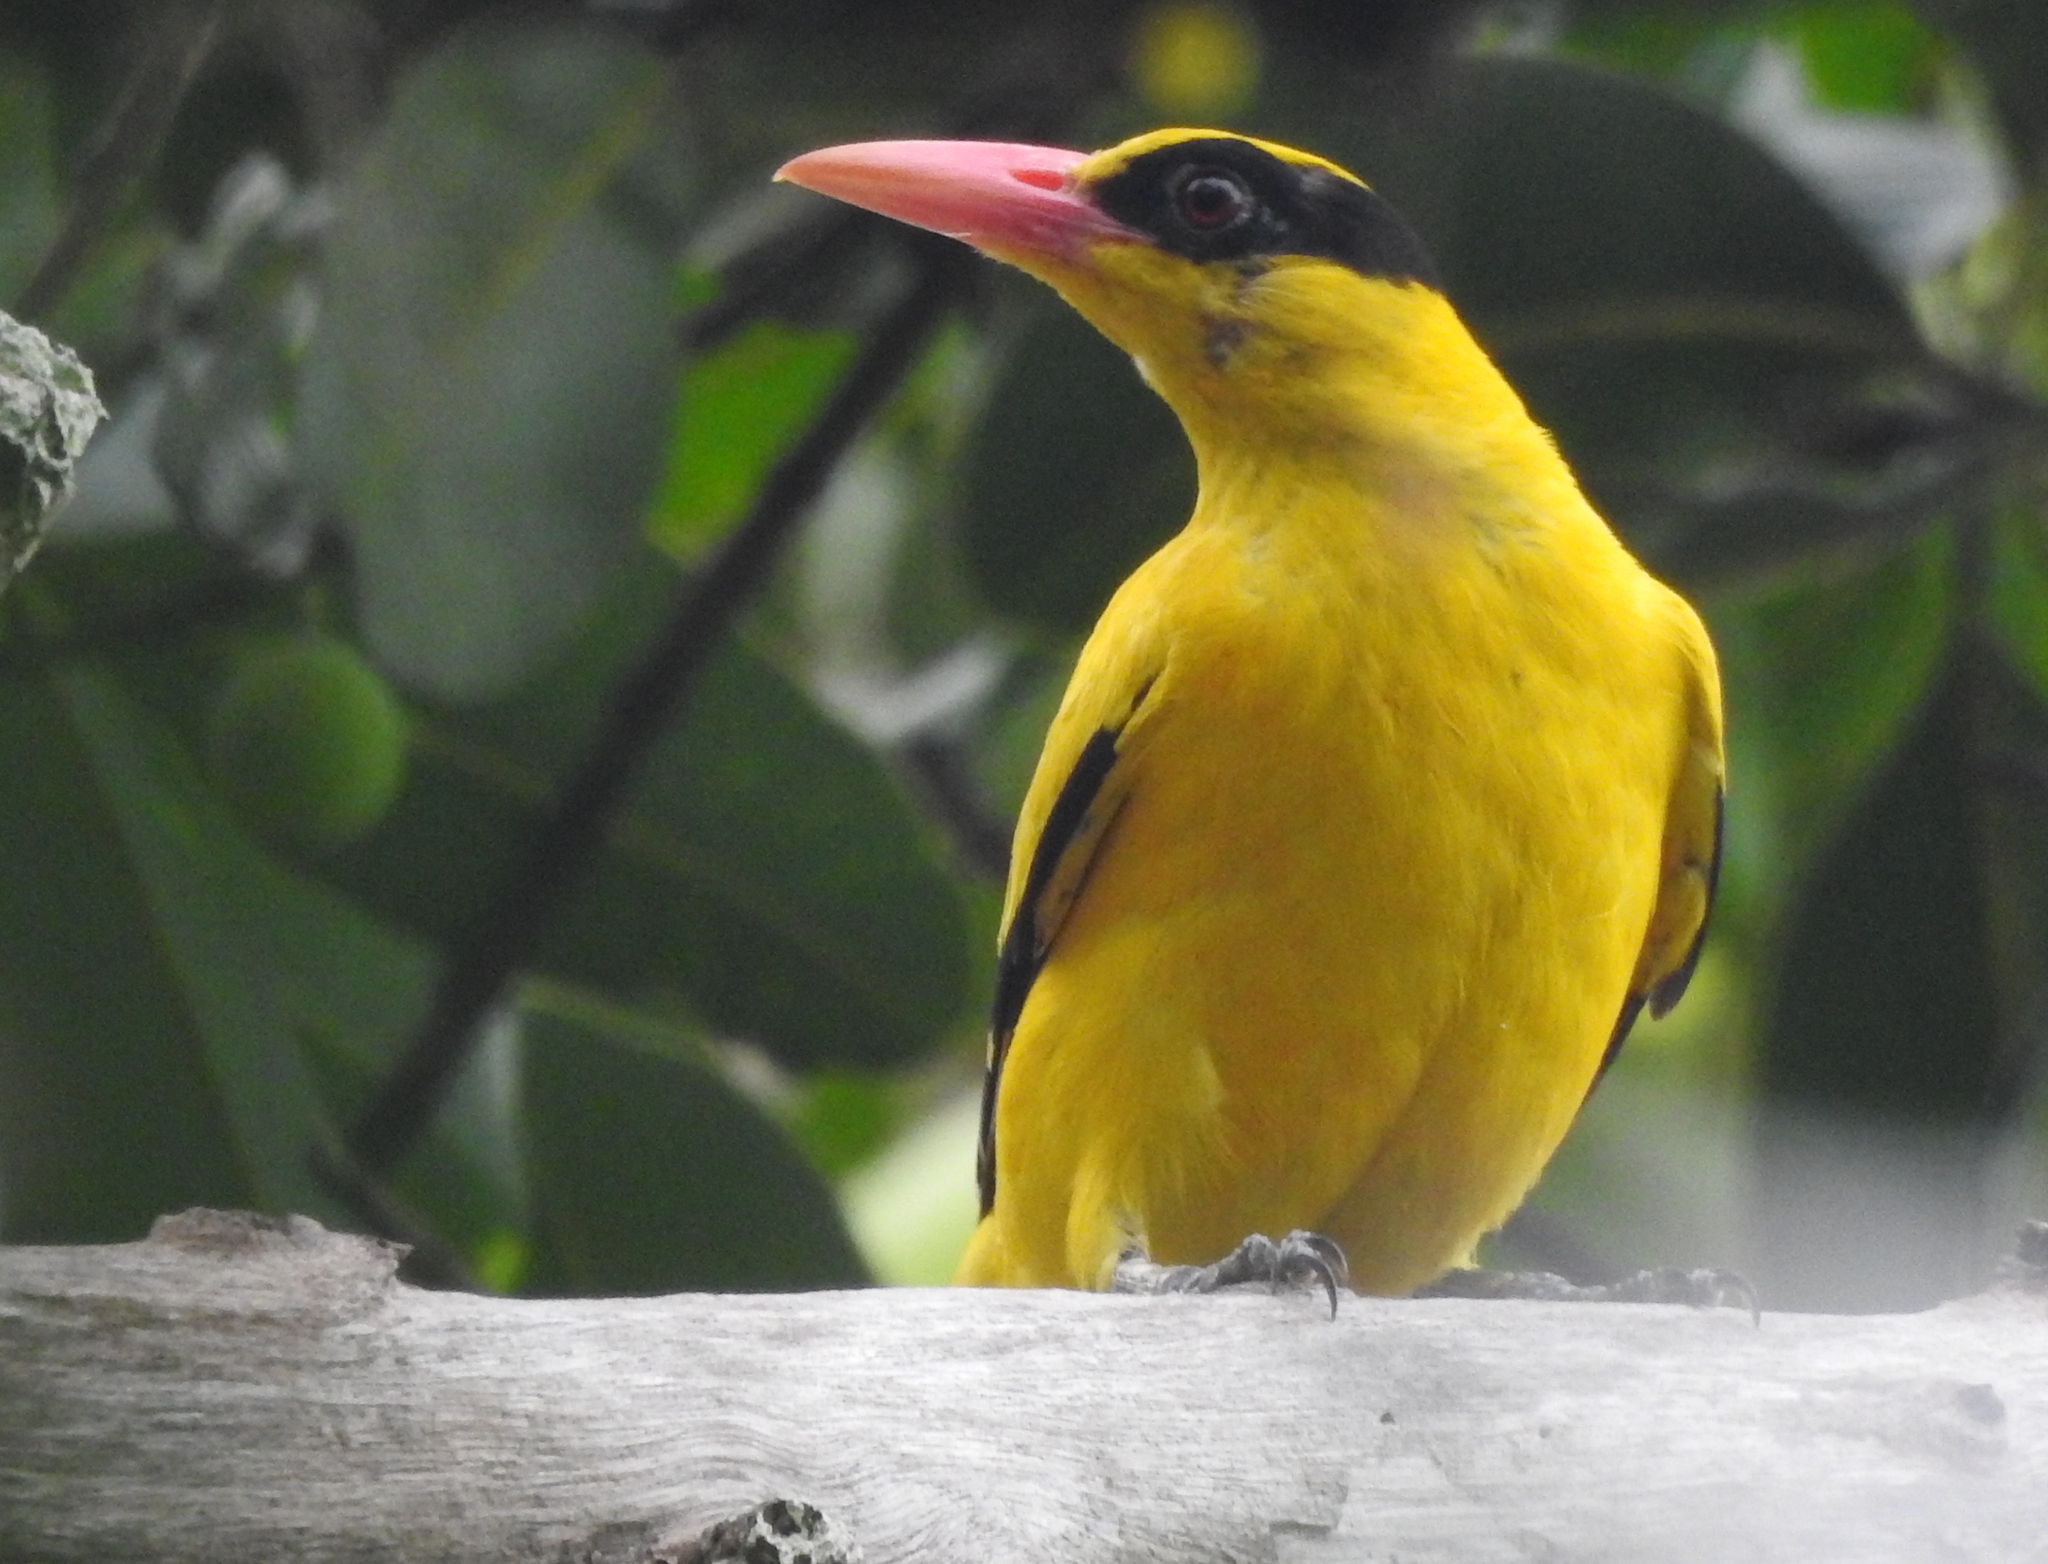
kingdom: Animalia
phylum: Chordata
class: Aves
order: Passeriformes
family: Oriolidae
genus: Oriolus
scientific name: Oriolus chinensis
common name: Black-naped oriole
